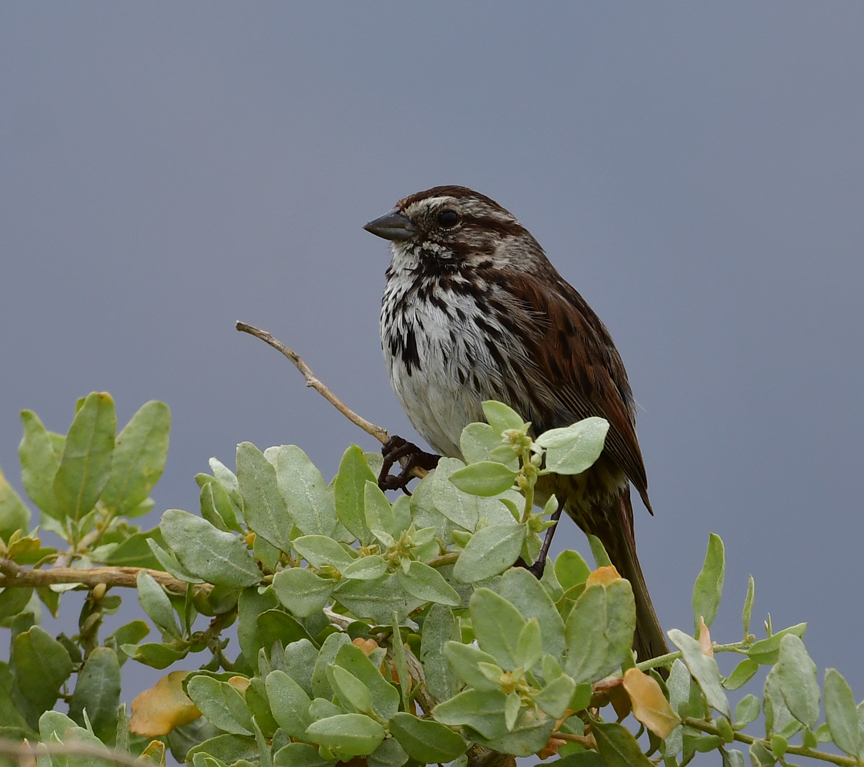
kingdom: Animalia
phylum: Chordata
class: Aves
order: Passeriformes
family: Passerellidae
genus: Melospiza
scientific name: Melospiza melodia
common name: Song sparrow
